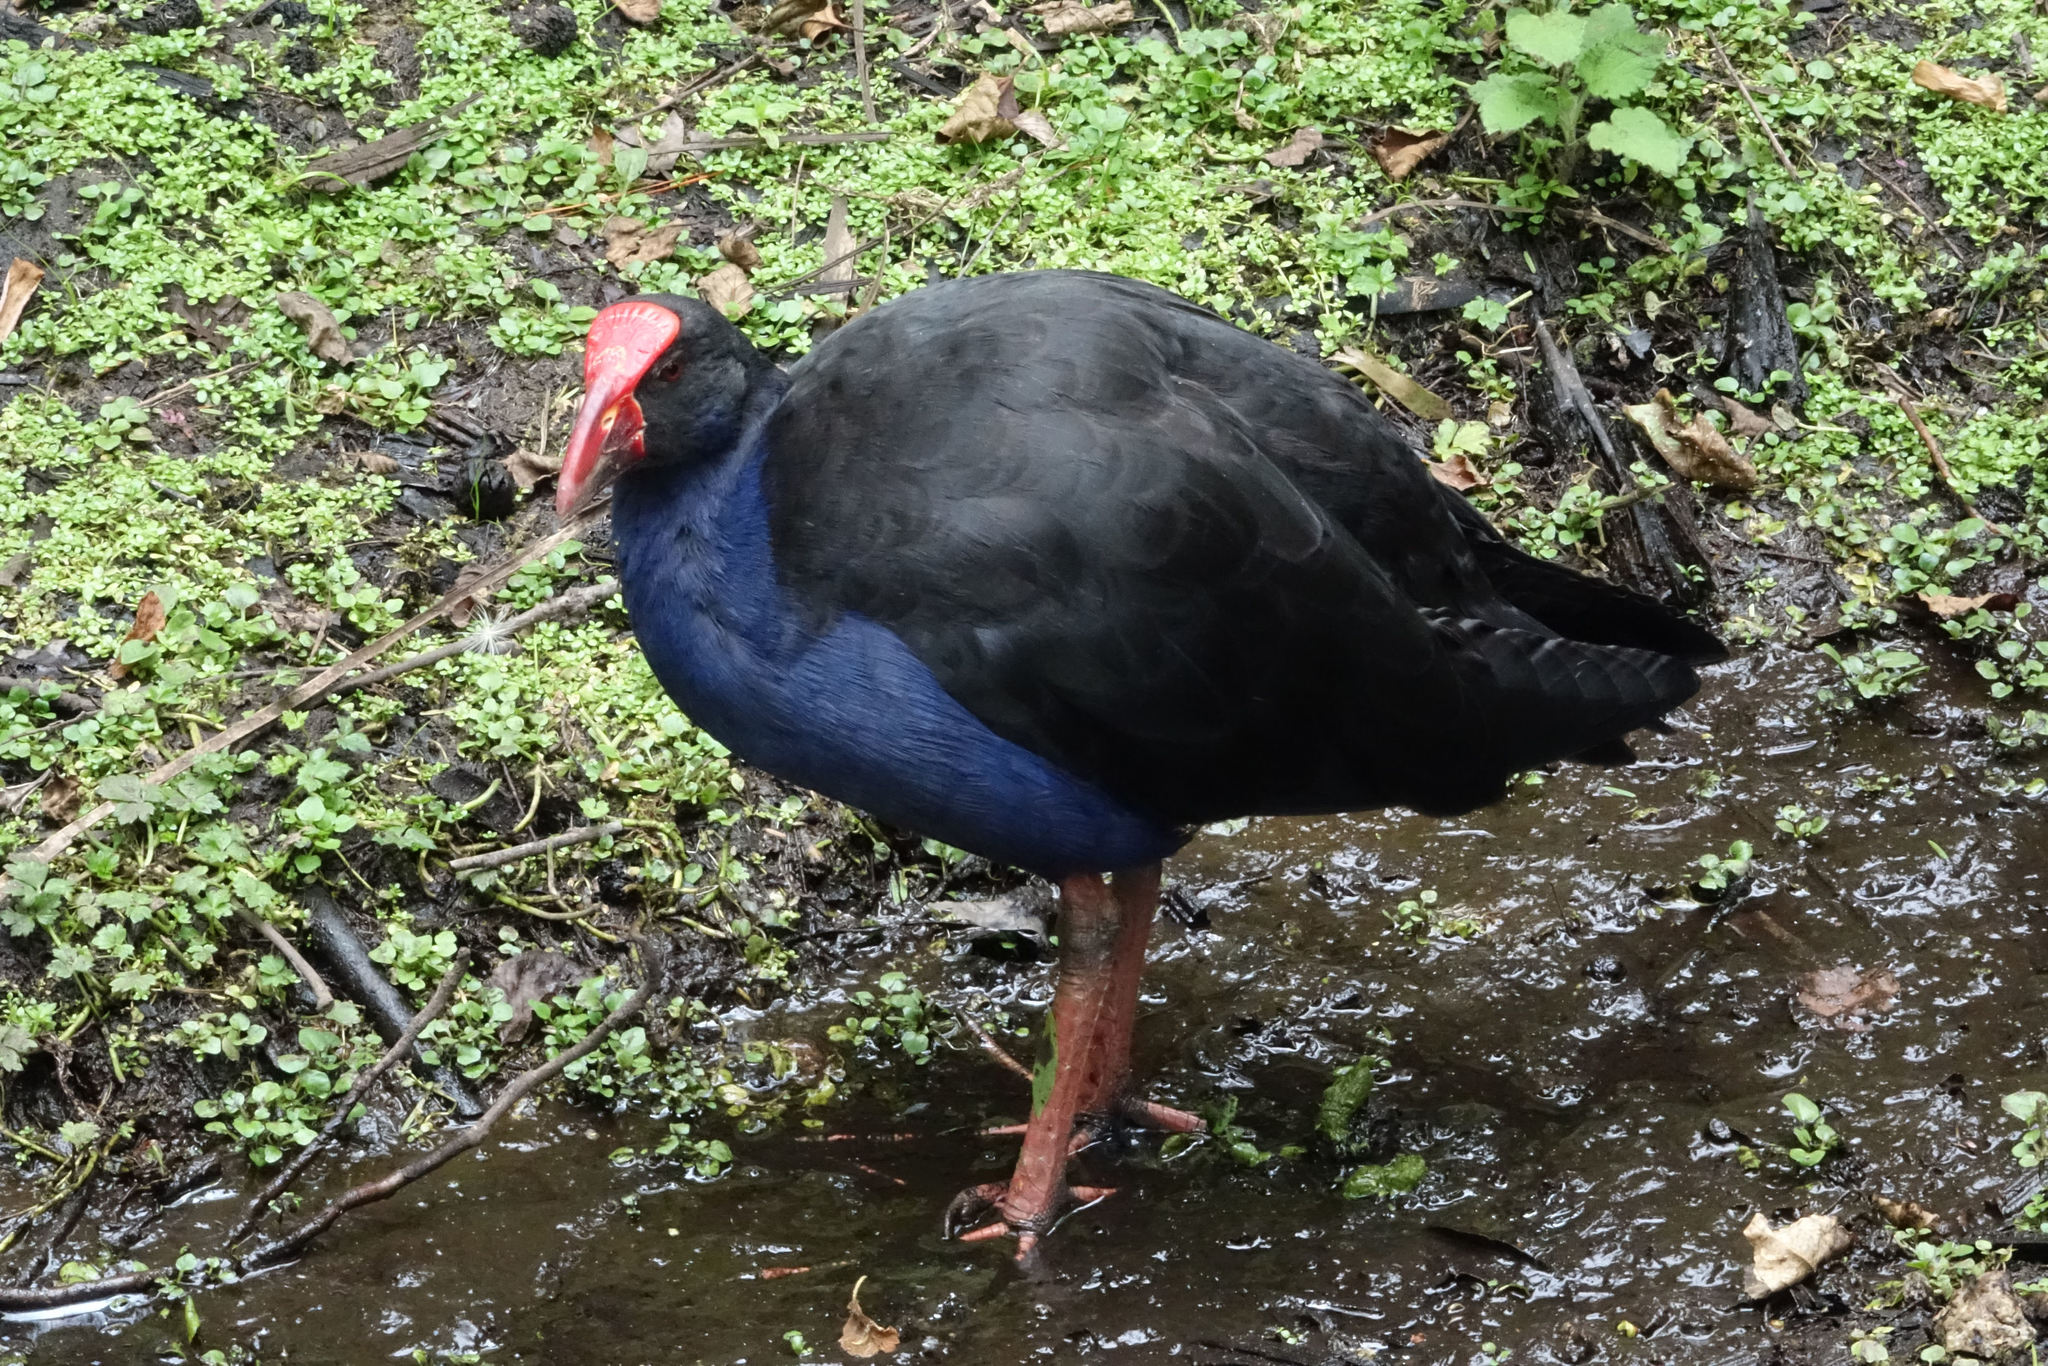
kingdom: Animalia
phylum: Chordata
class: Aves
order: Gruiformes
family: Rallidae
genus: Porphyrio
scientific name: Porphyrio melanotus
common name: Australasian swamphen
